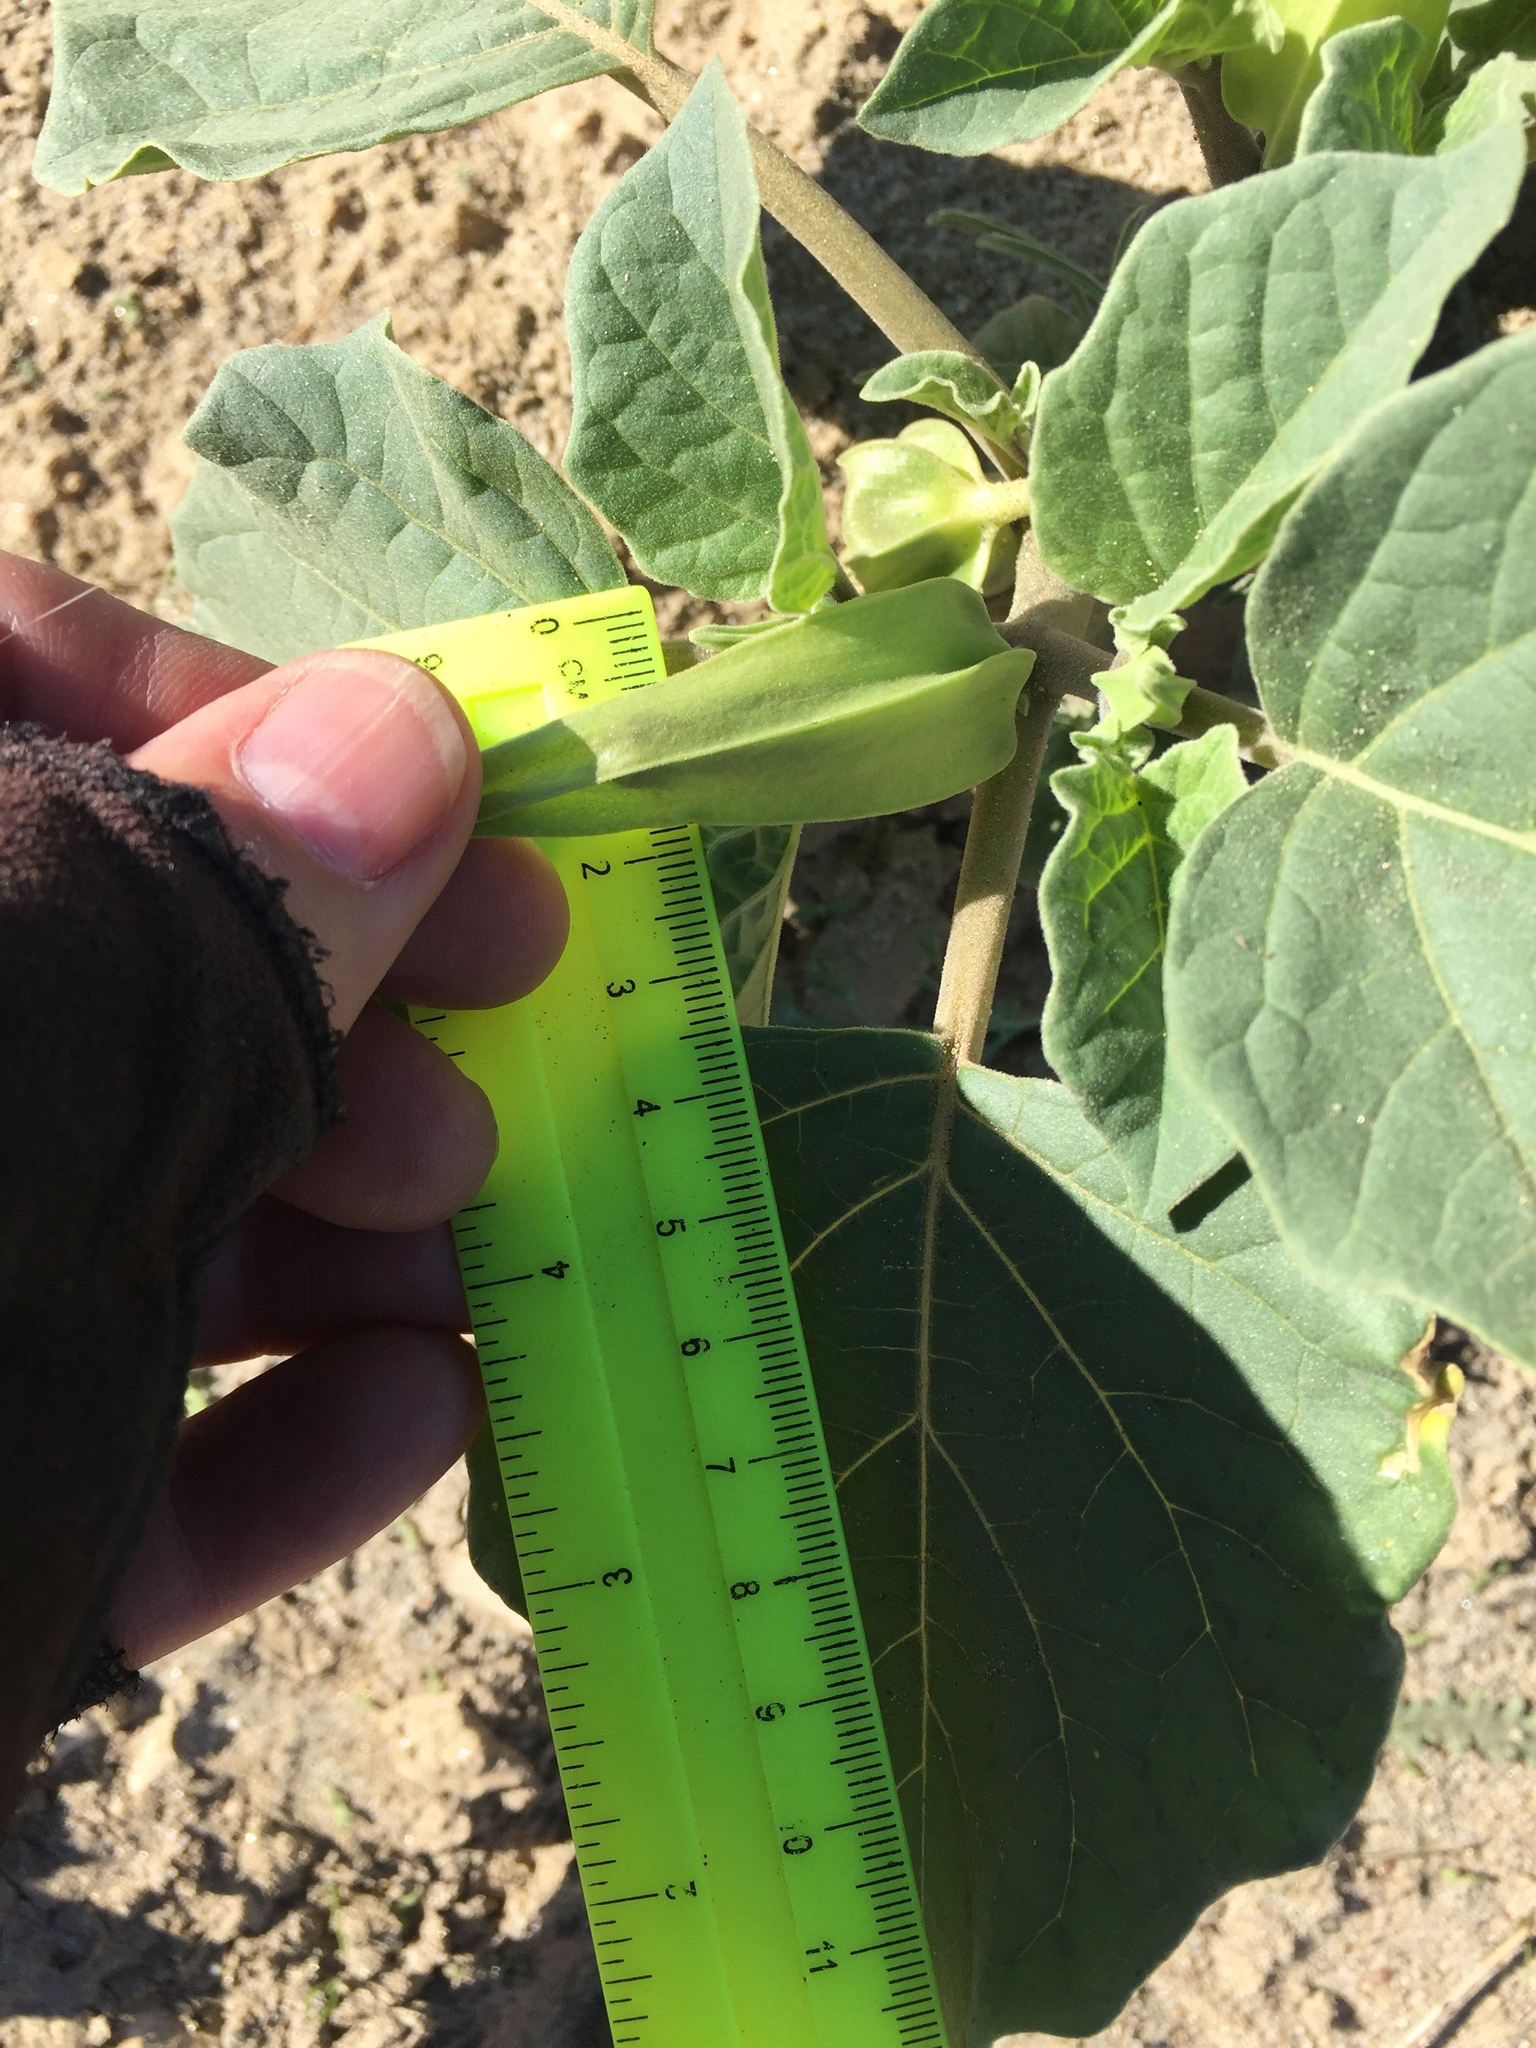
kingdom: Plantae
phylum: Tracheophyta
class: Magnoliopsida
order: Solanales
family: Solanaceae
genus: Datura
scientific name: Datura discolor
